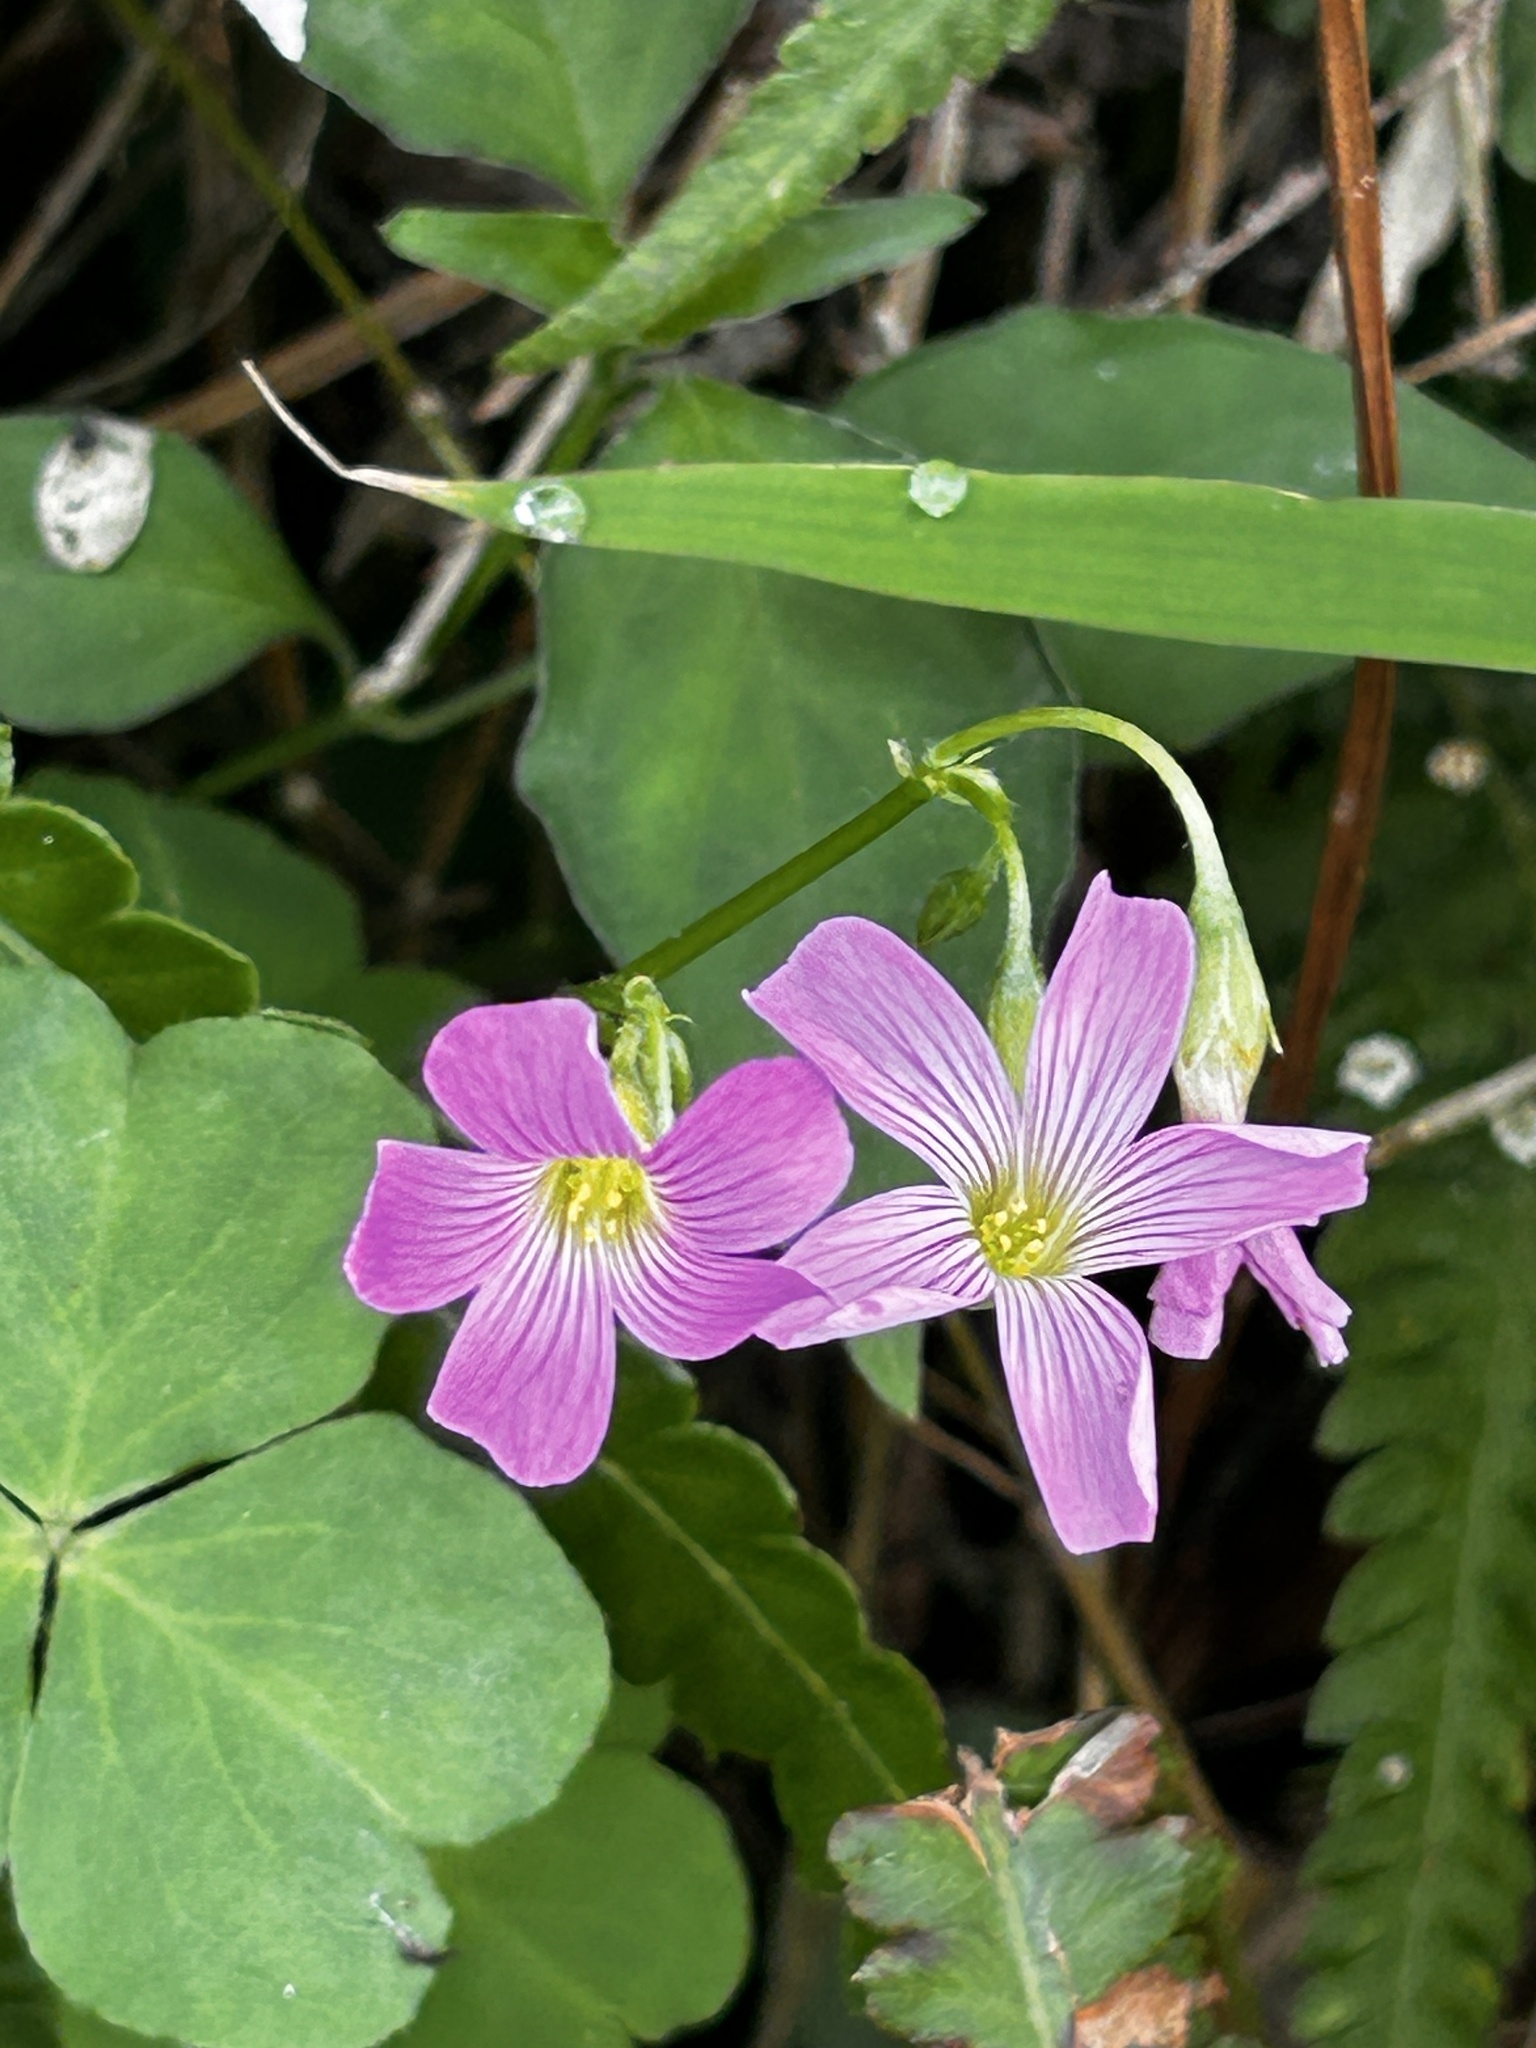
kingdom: Plantae
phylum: Tracheophyta
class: Magnoliopsida
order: Oxalidales
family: Oxalidaceae
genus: Oxalis
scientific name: Oxalis debilis
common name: Large-flowered pink-sorrel
